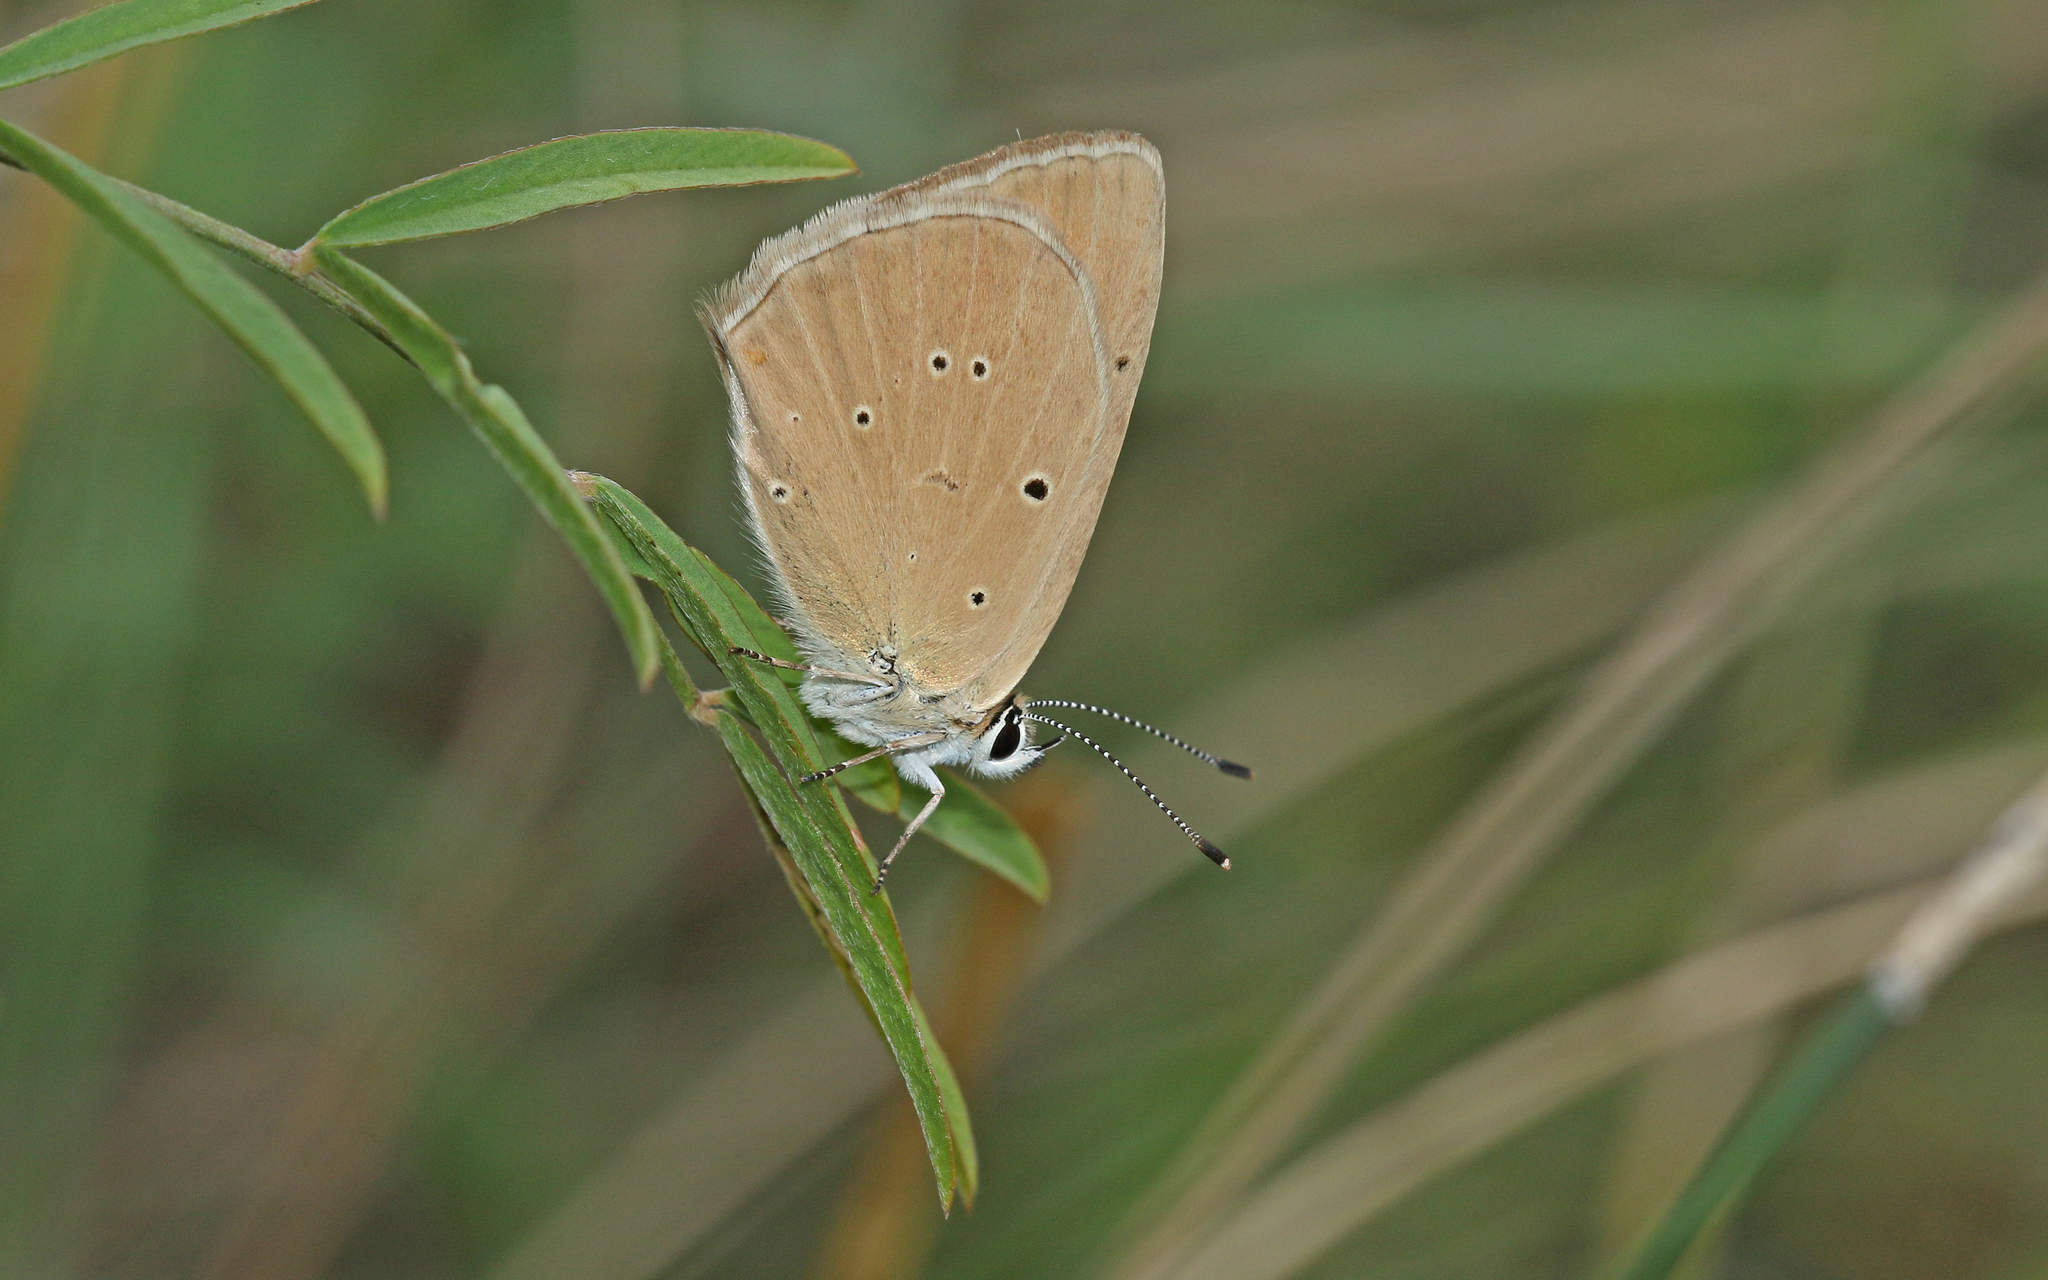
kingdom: Animalia
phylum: Arthropoda
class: Insecta
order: Lepidoptera
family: Lycaenidae
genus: Agrodiaetus
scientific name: Agrodiaetus humedasae
